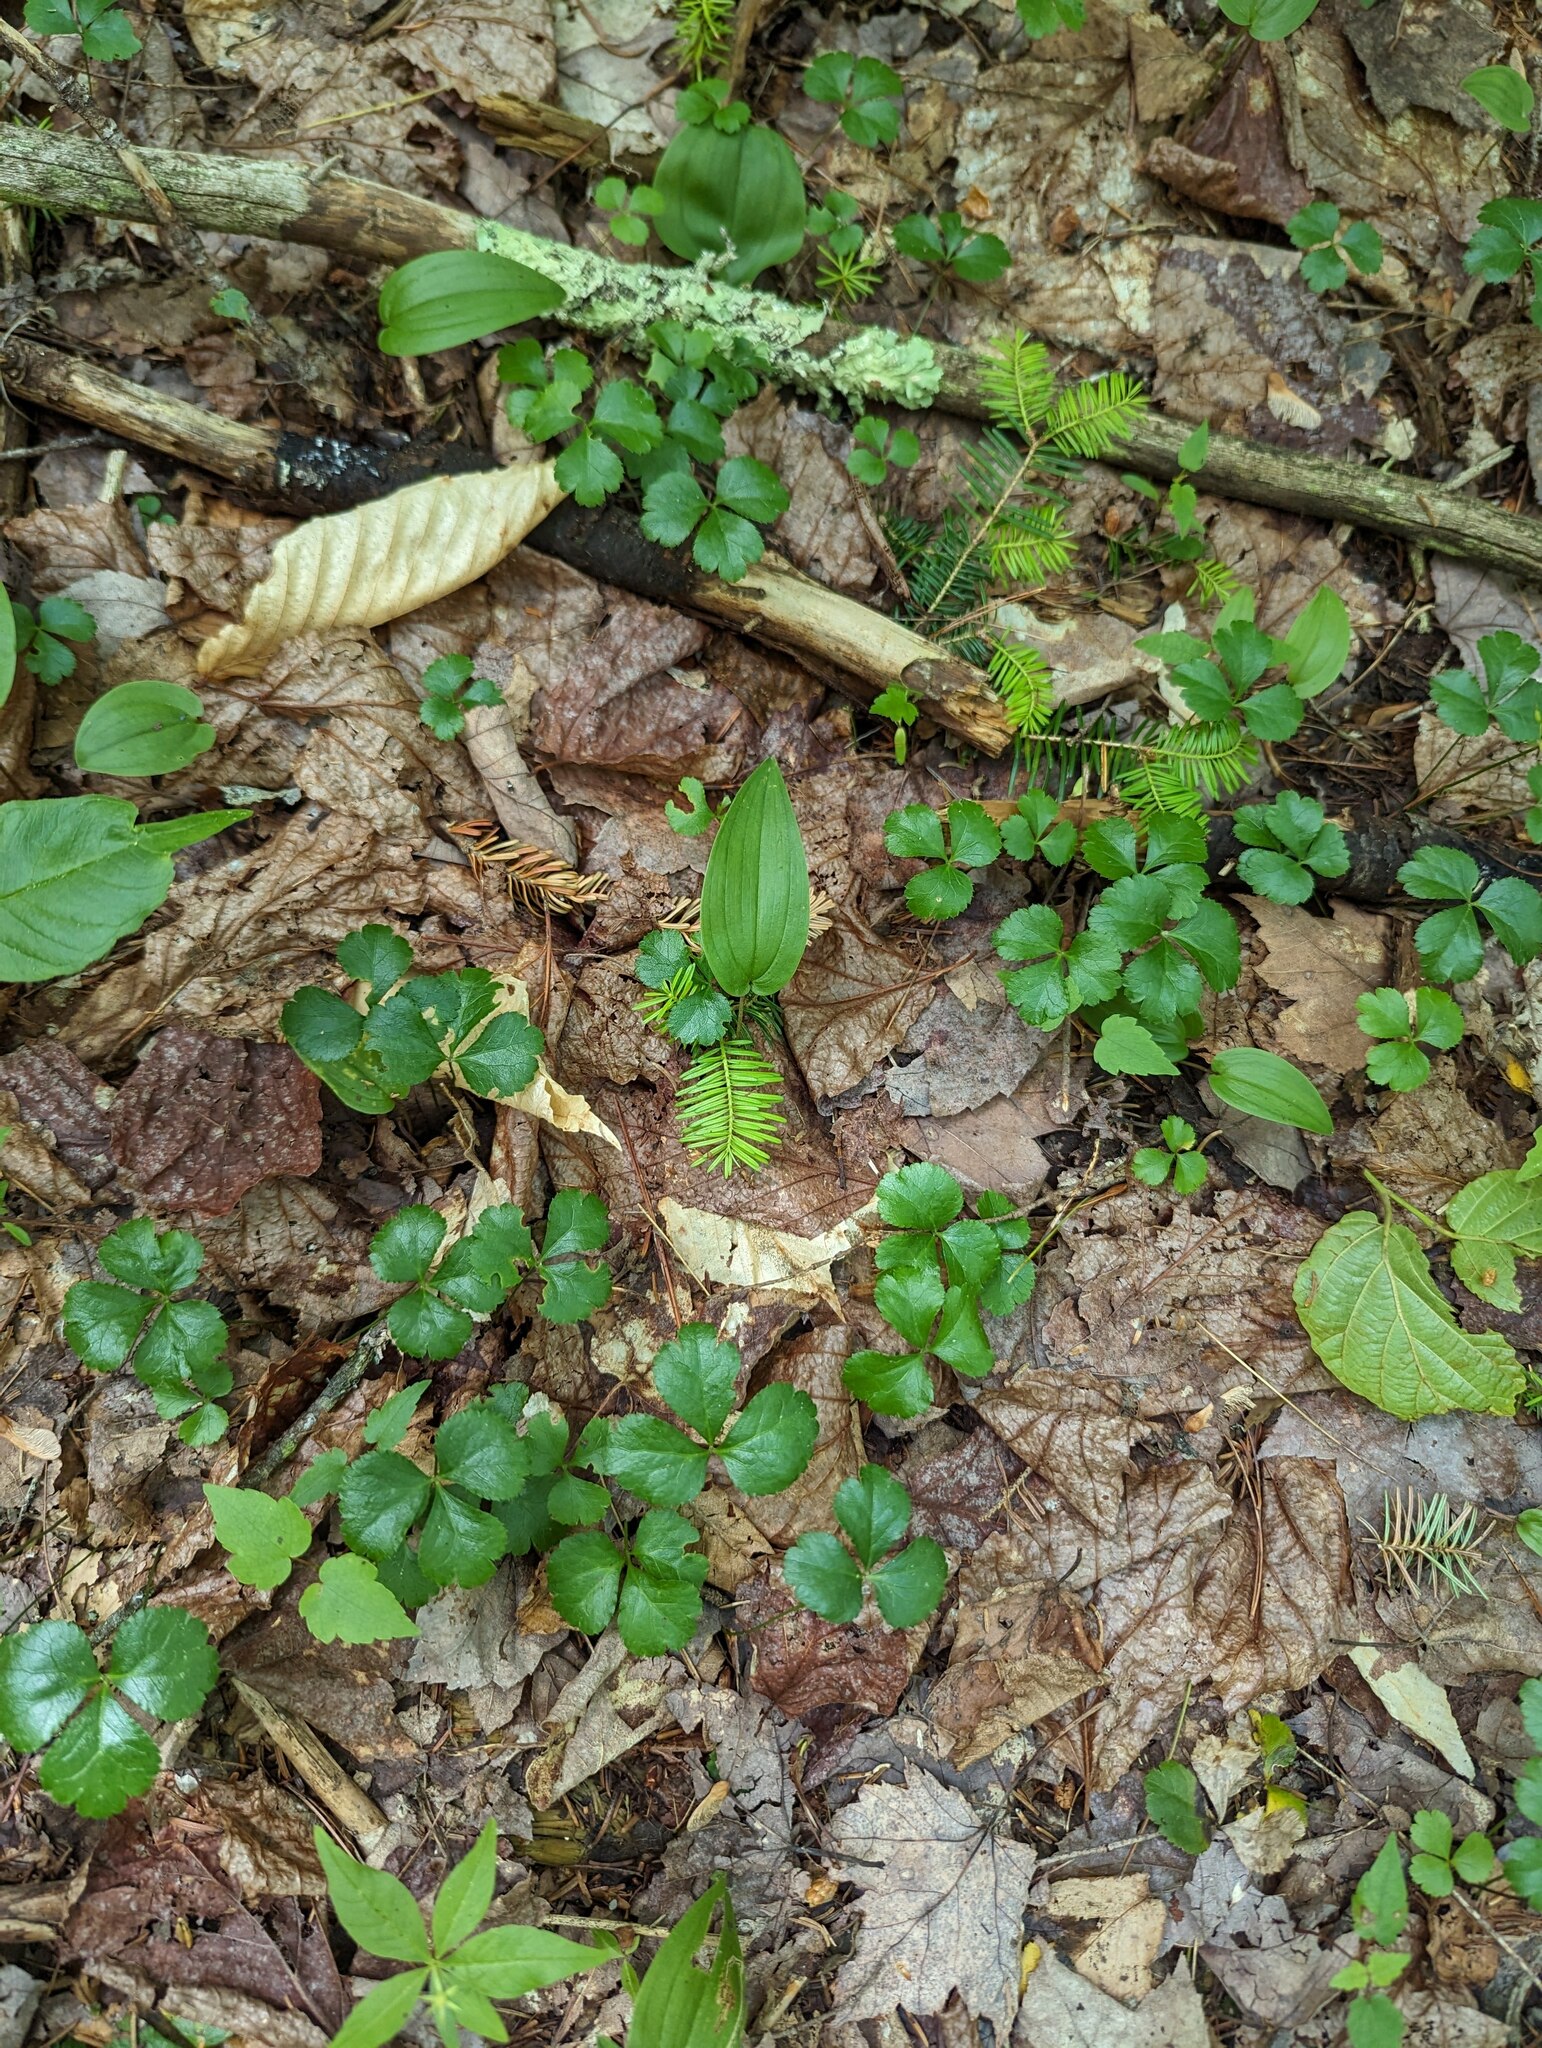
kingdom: Plantae
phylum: Tracheophyta
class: Magnoliopsida
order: Ranunculales
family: Ranunculaceae
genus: Coptis
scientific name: Coptis trifolia
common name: Canker-root
